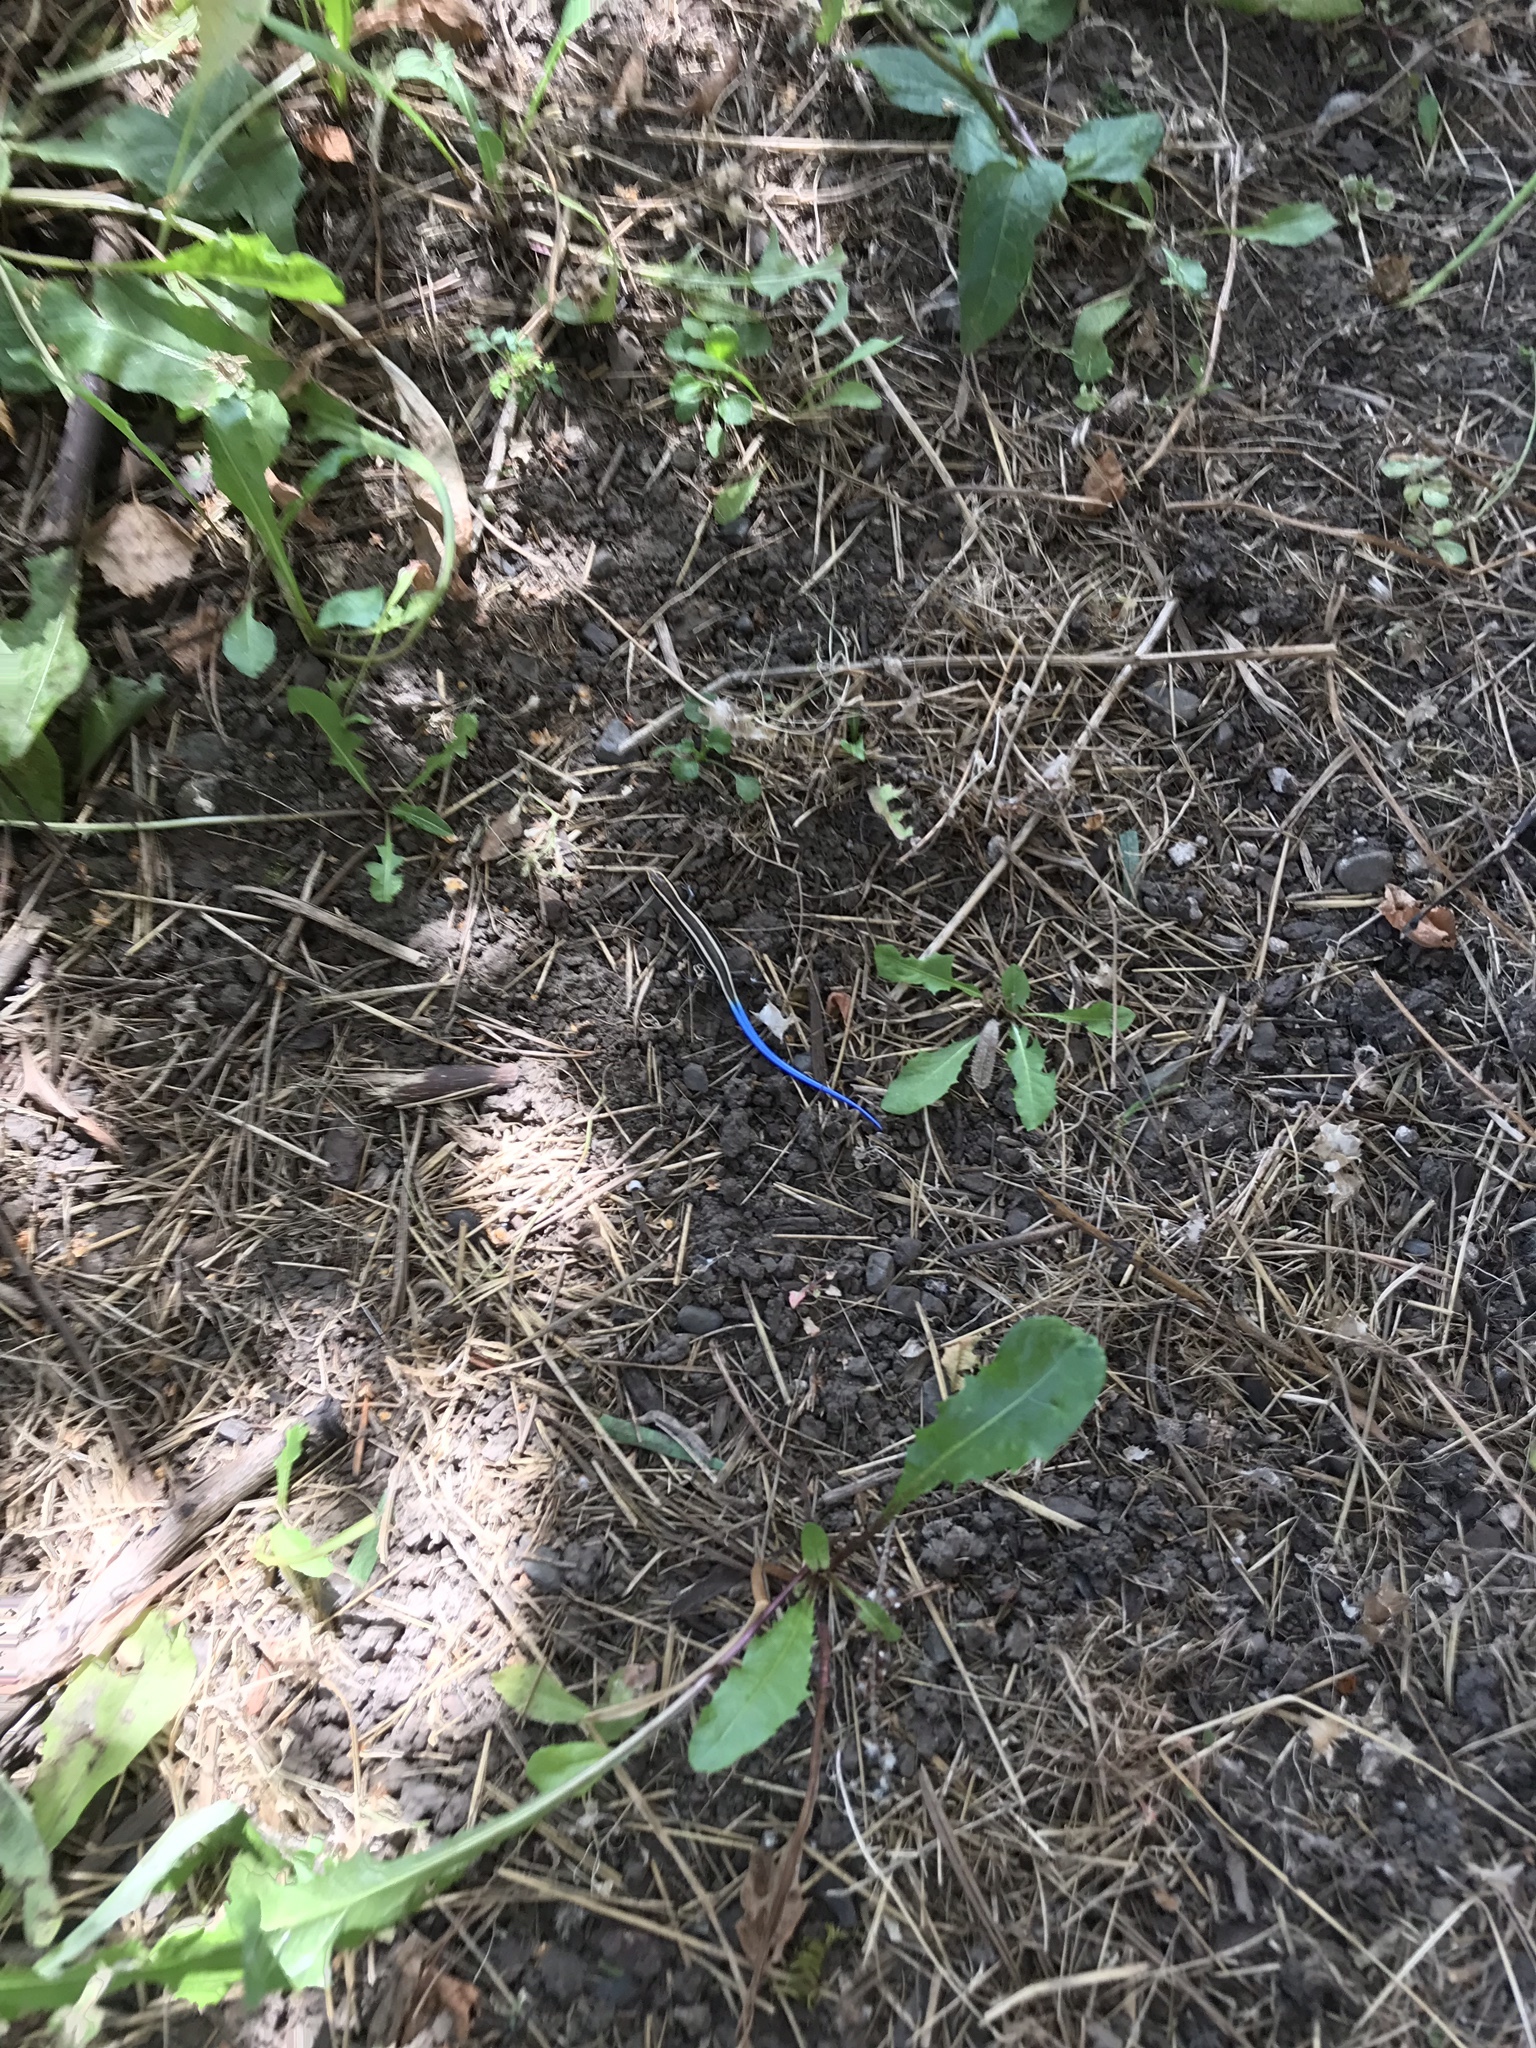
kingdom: Animalia
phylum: Chordata
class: Squamata
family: Scincidae
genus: Plestiodon
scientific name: Plestiodon skiltonianus
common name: Coronado island skink [interparietalis]
